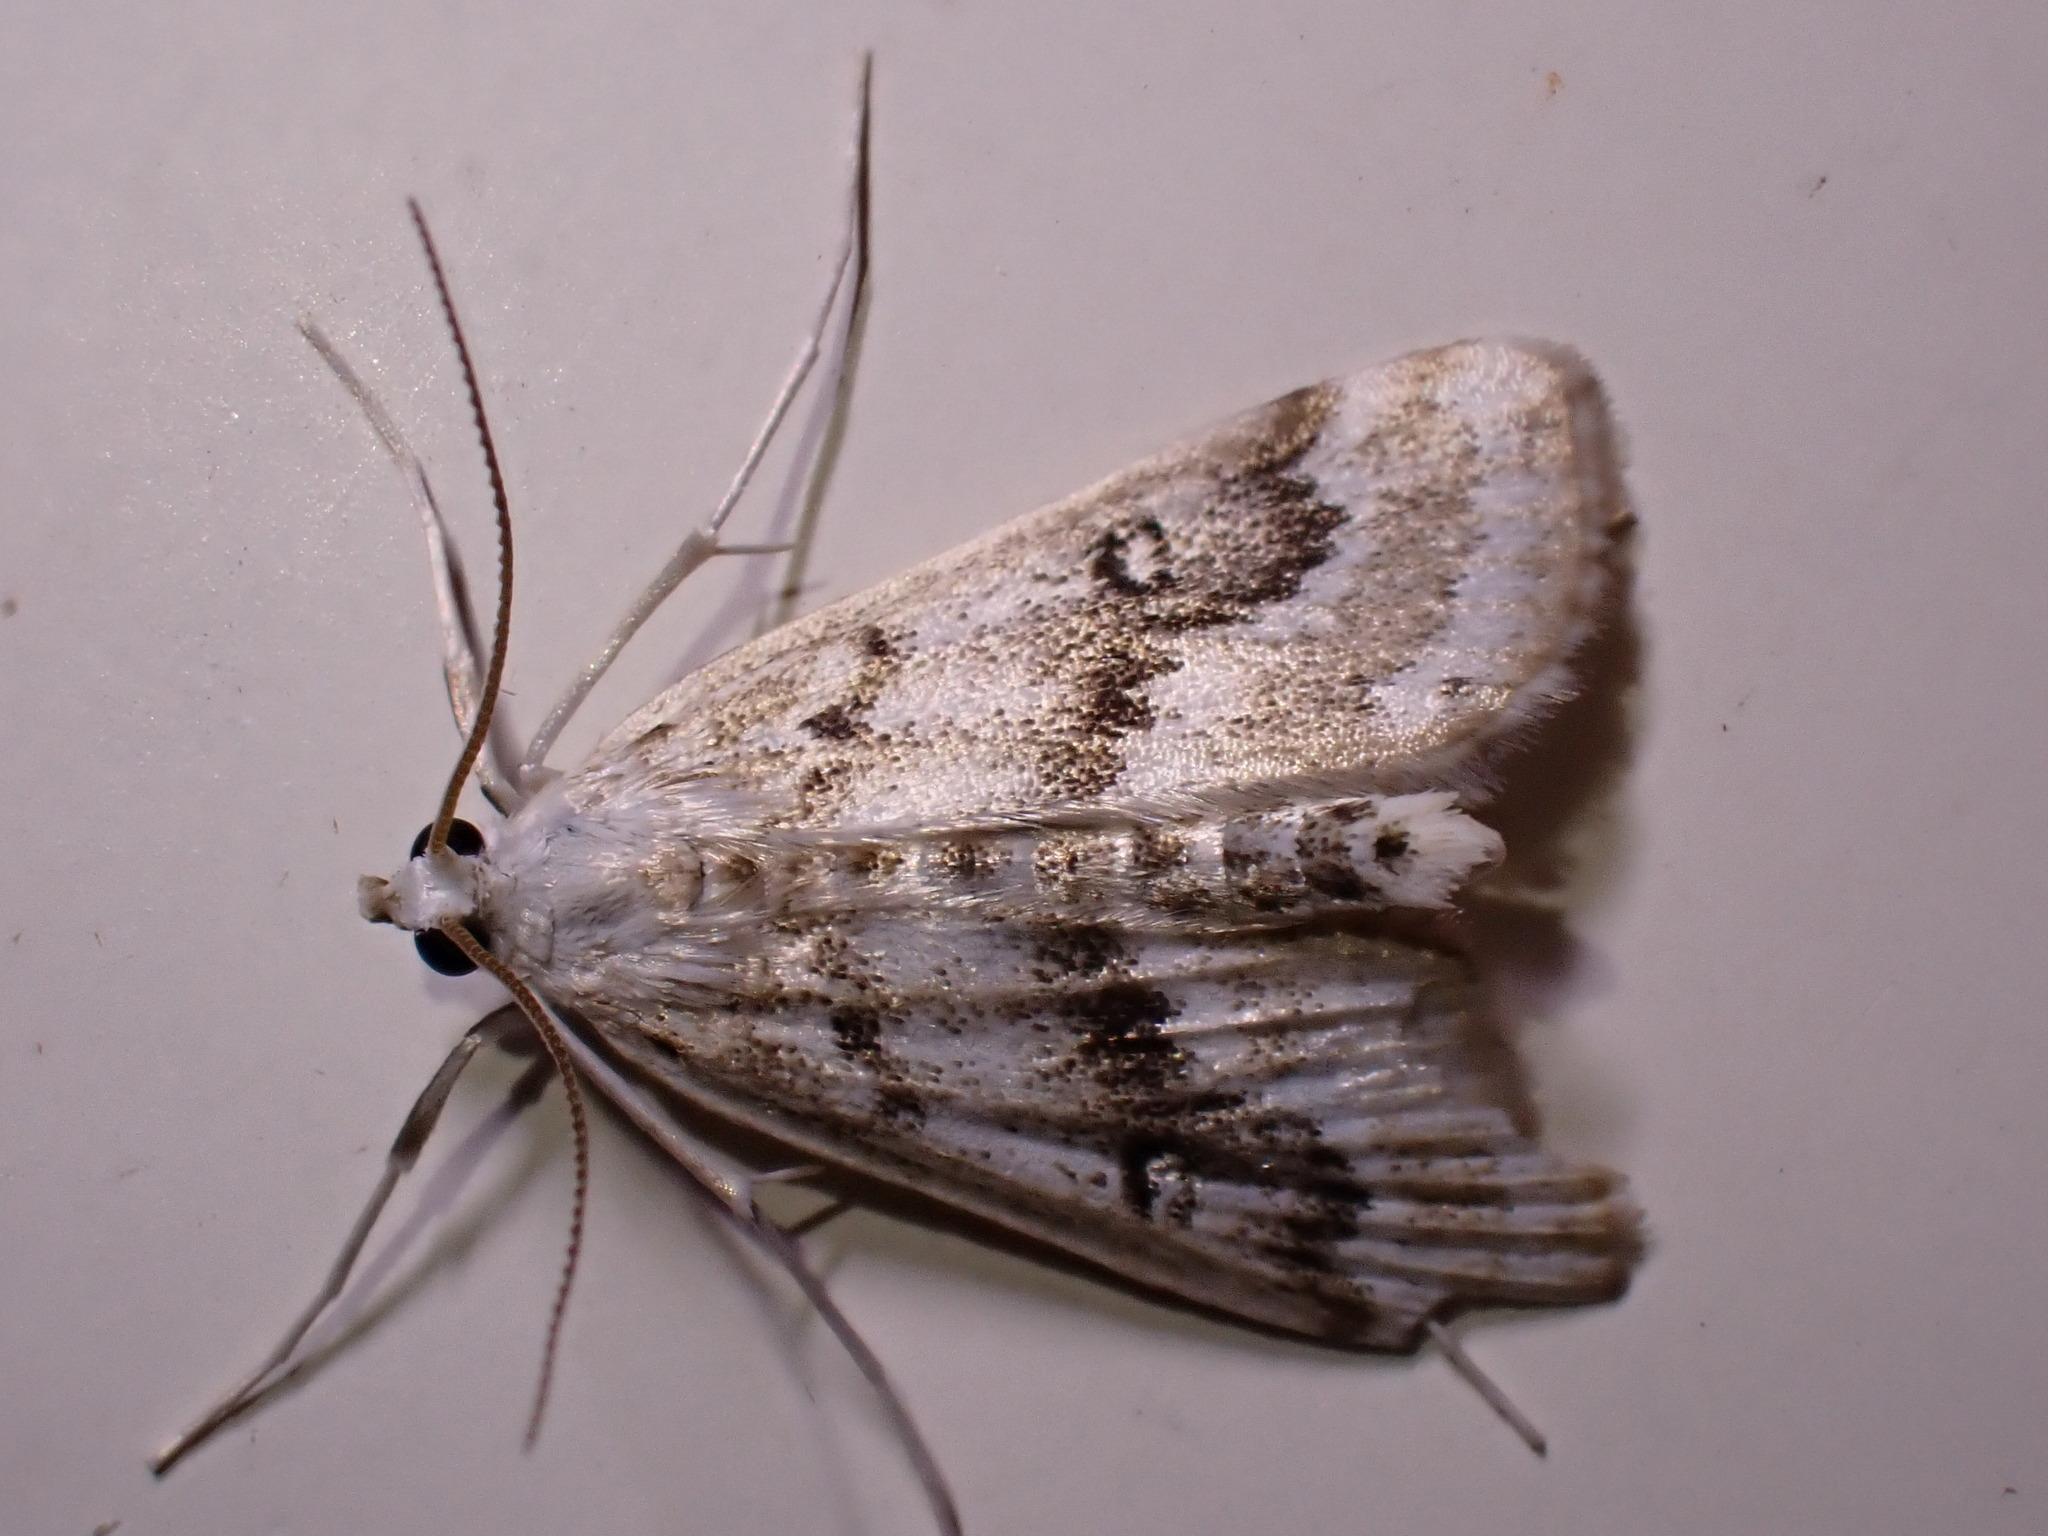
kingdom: Animalia
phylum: Arthropoda
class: Insecta
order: Lepidoptera
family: Crambidae
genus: Parapoynx
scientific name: Parapoynx stratiotata
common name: Ringed china-mark
